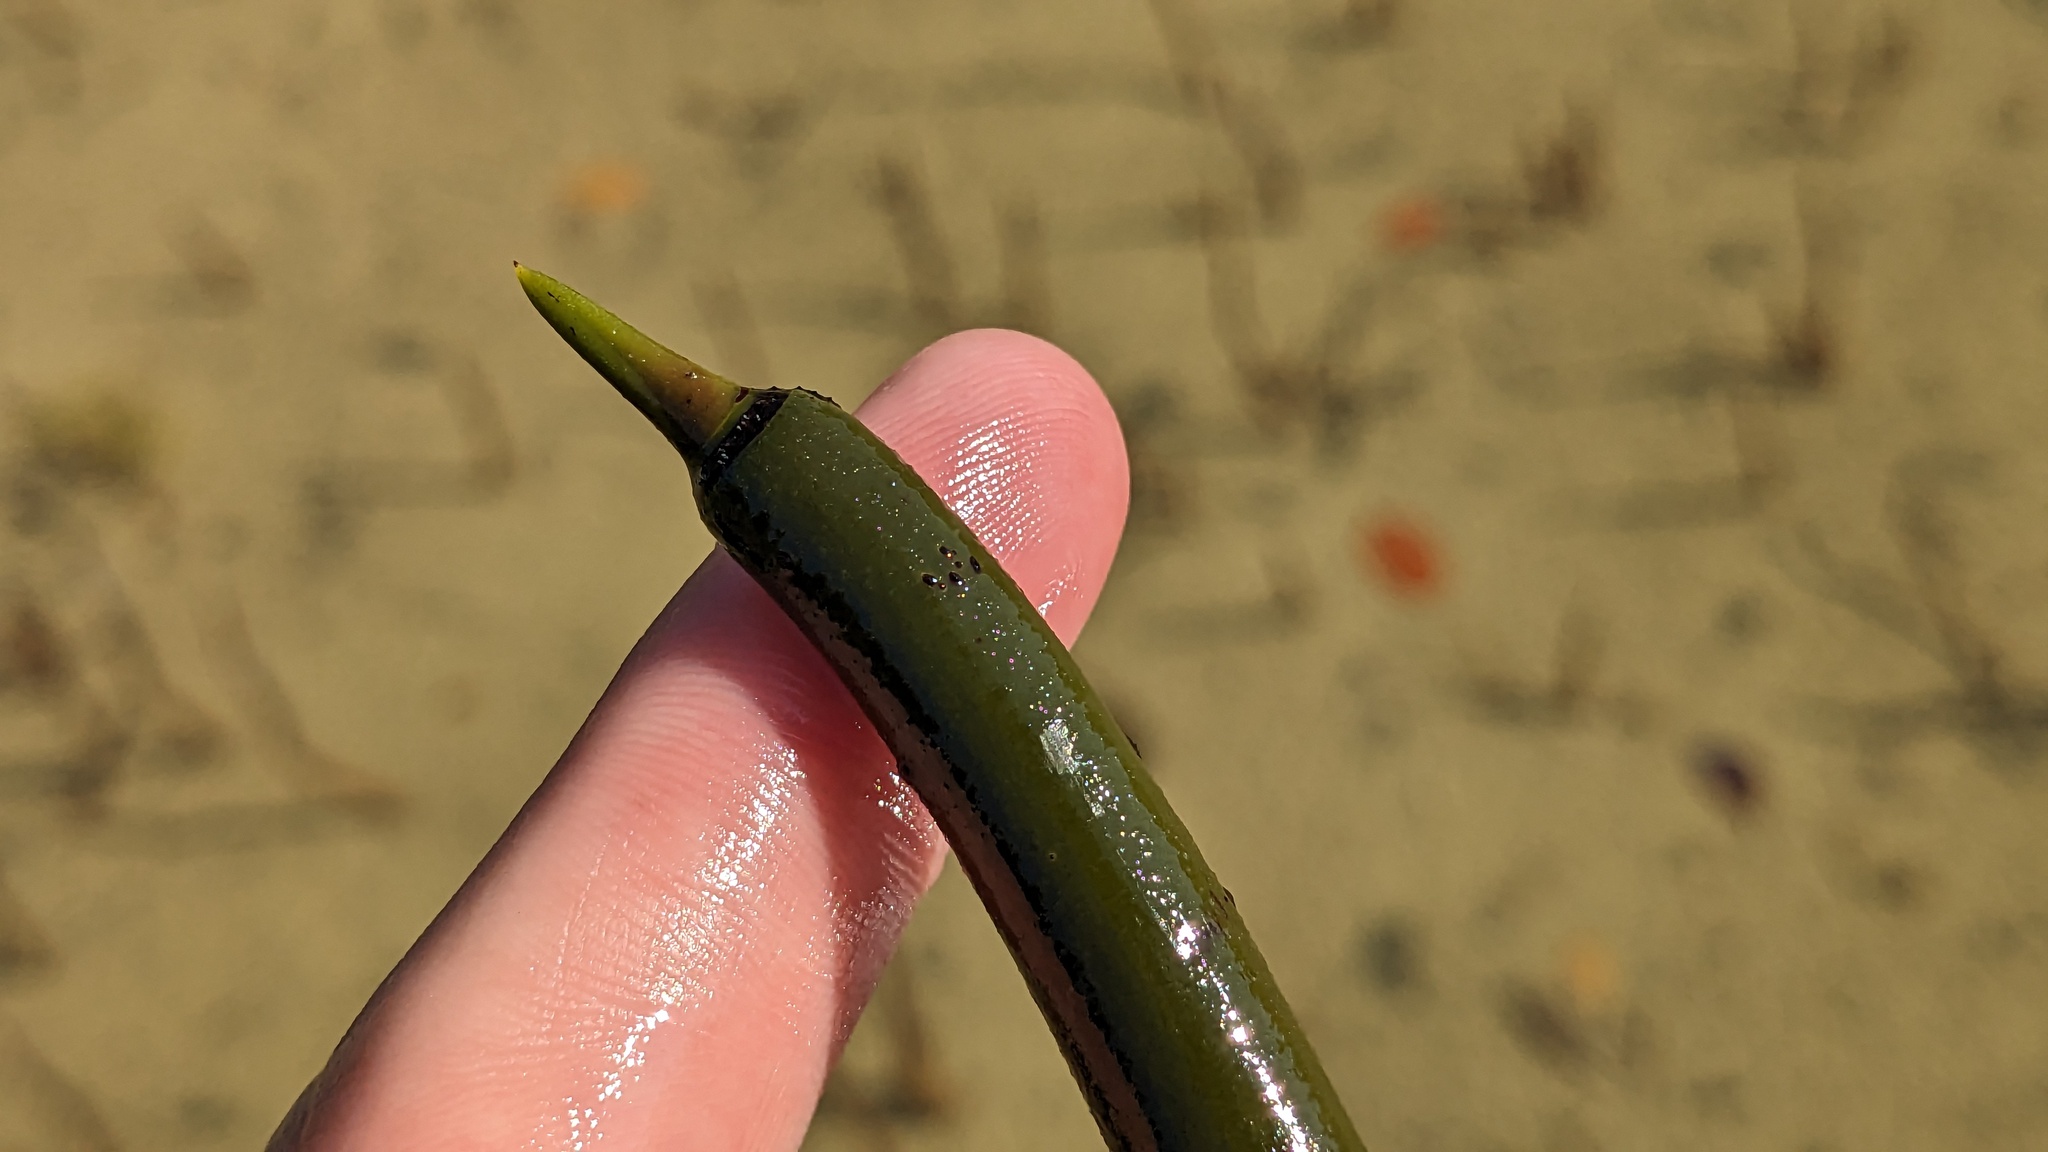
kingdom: Plantae
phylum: Tracheophyta
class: Magnoliopsida
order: Malpighiales
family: Rhizophoraceae
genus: Rhizophora
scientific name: Rhizophora mangle
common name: Red mangrove
